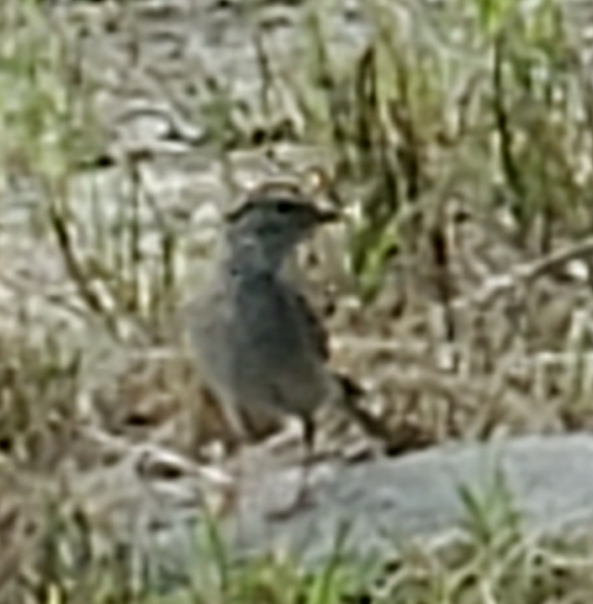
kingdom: Animalia
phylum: Chordata
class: Aves
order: Passeriformes
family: Passerellidae
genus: Spizella
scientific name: Spizella passerina
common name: Chipping sparrow
